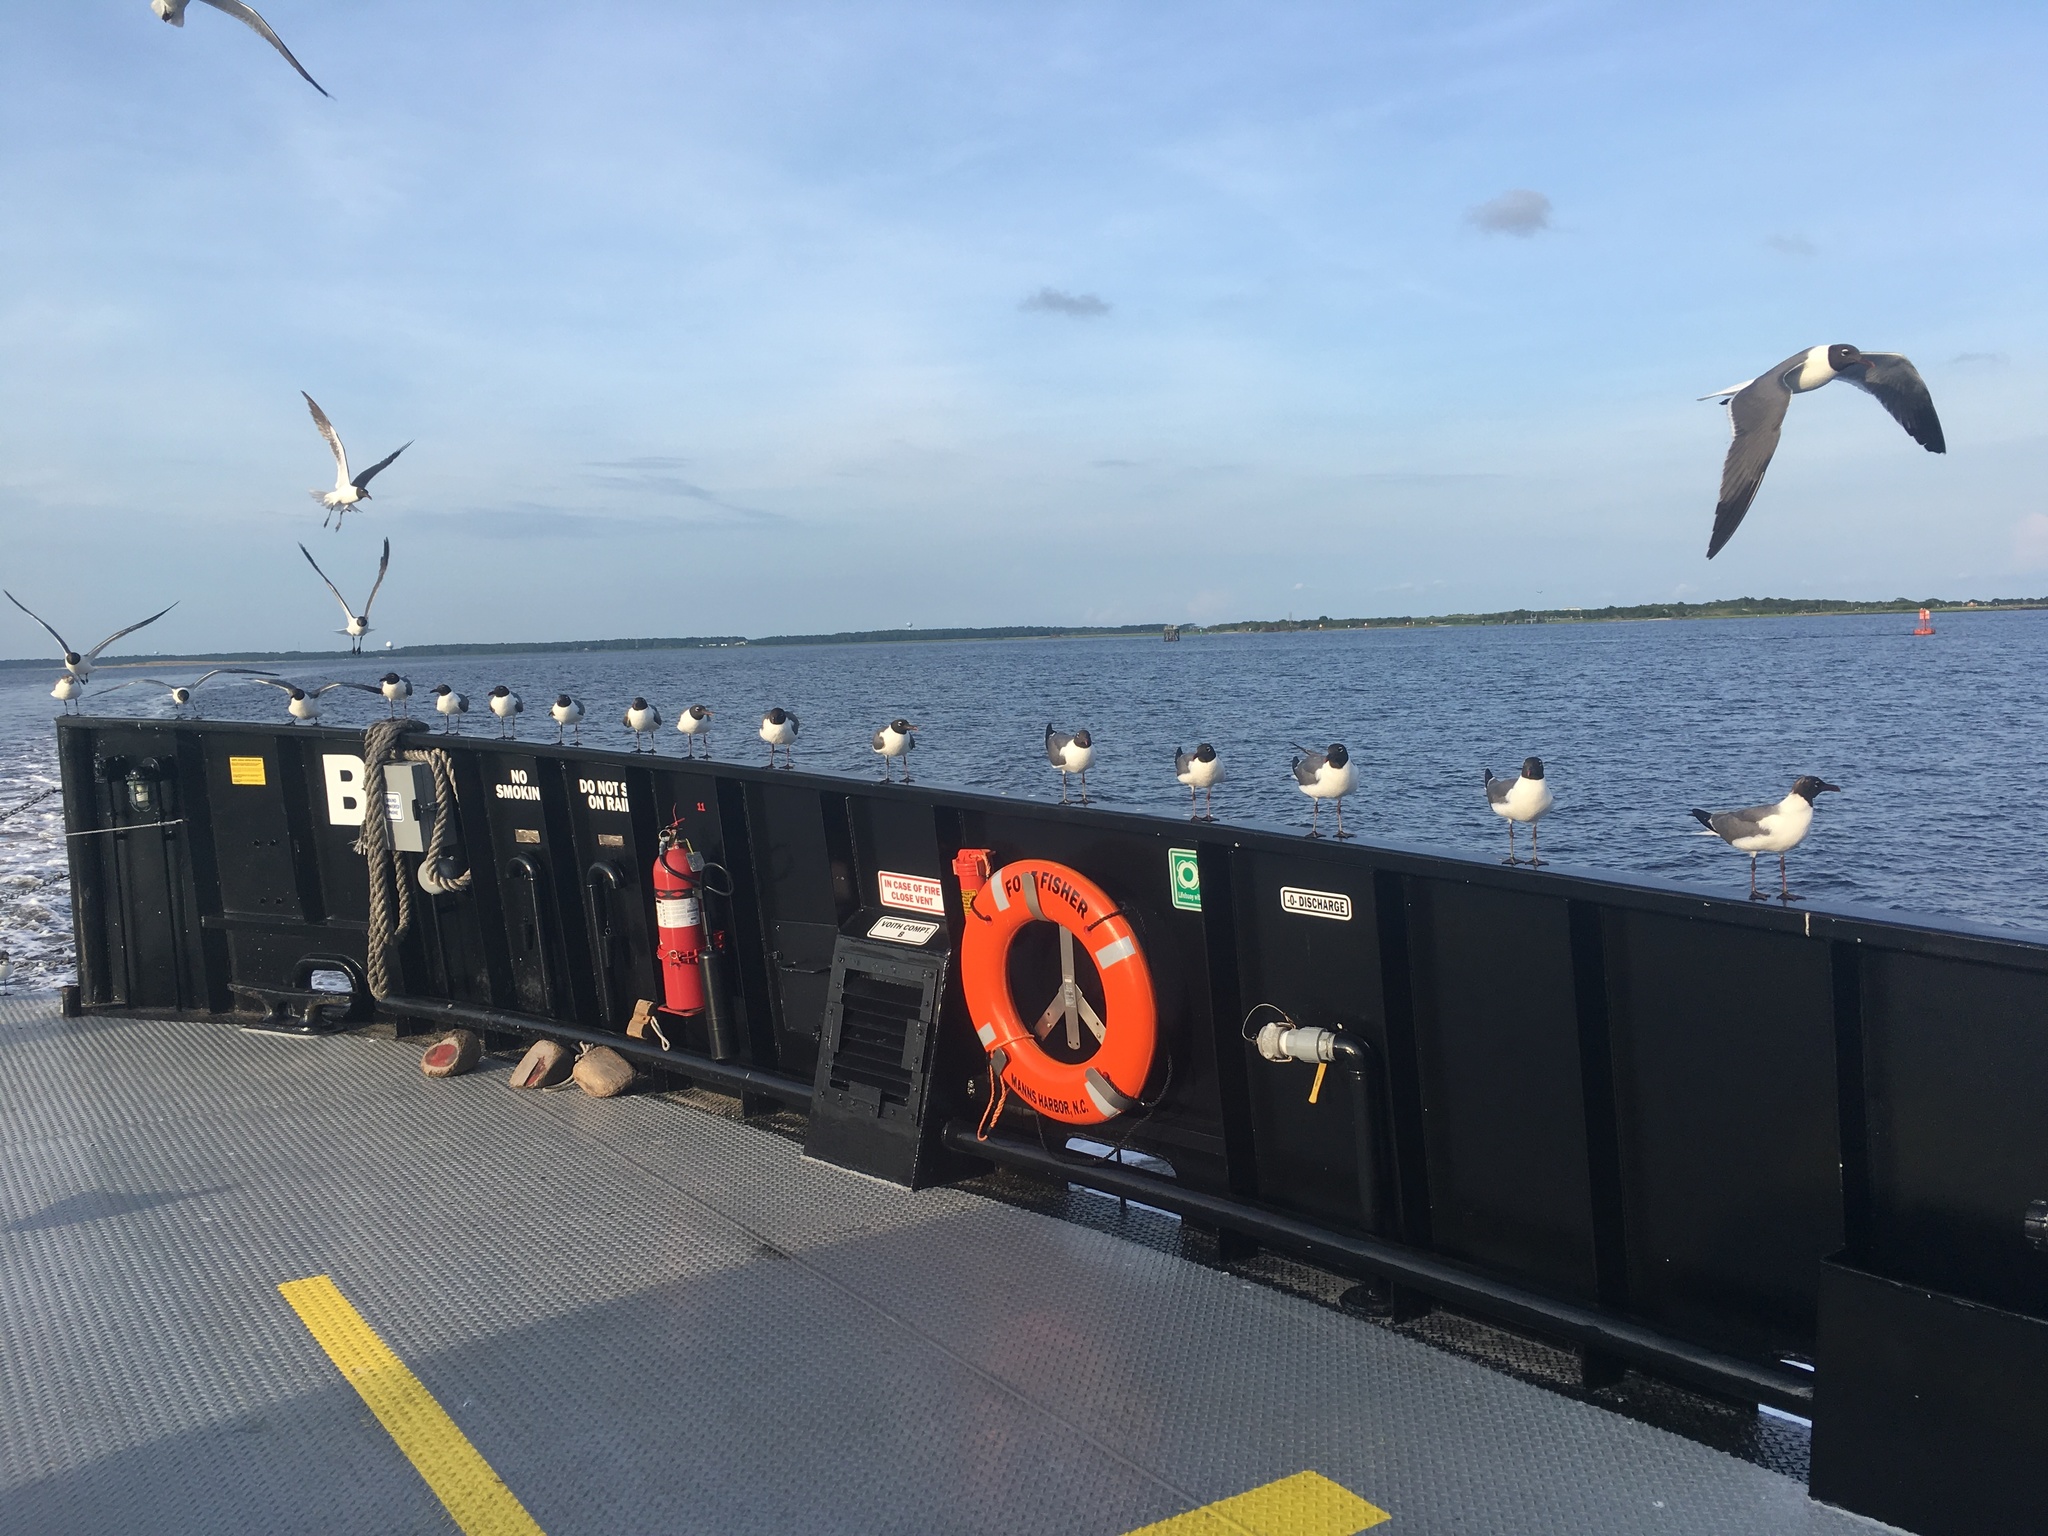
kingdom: Animalia
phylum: Chordata
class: Aves
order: Charadriiformes
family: Laridae
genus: Leucophaeus
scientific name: Leucophaeus atricilla
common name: Laughing gull
